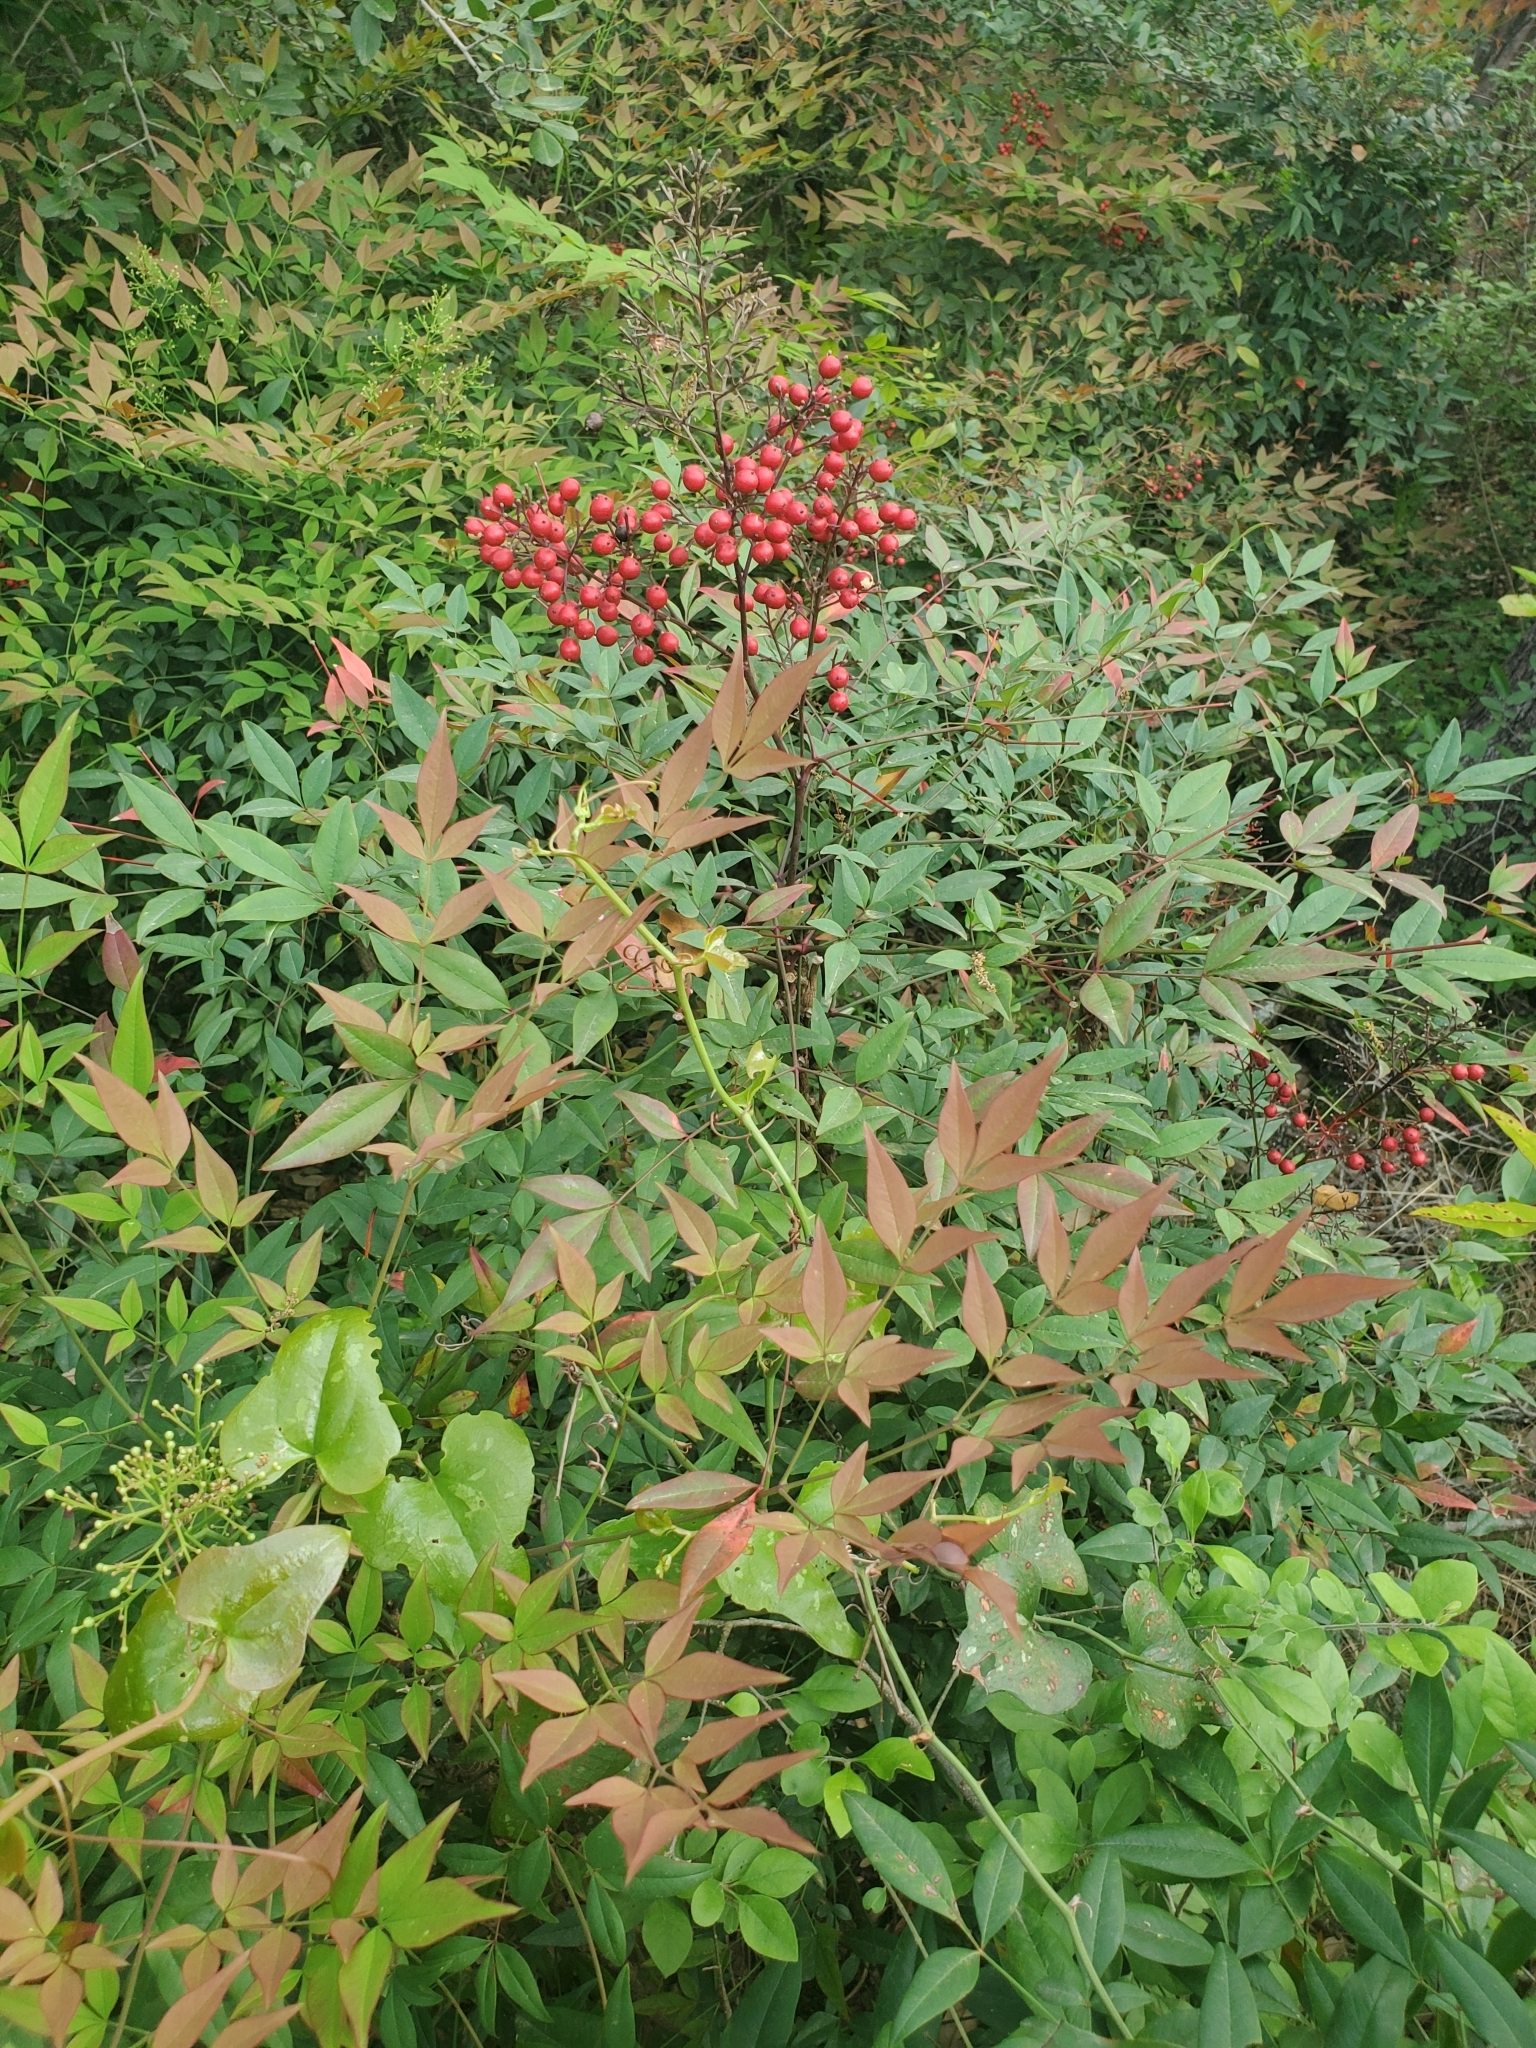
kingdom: Plantae
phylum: Tracheophyta
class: Magnoliopsida
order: Ranunculales
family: Berberidaceae
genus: Nandina
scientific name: Nandina domestica
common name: Sacred bamboo
